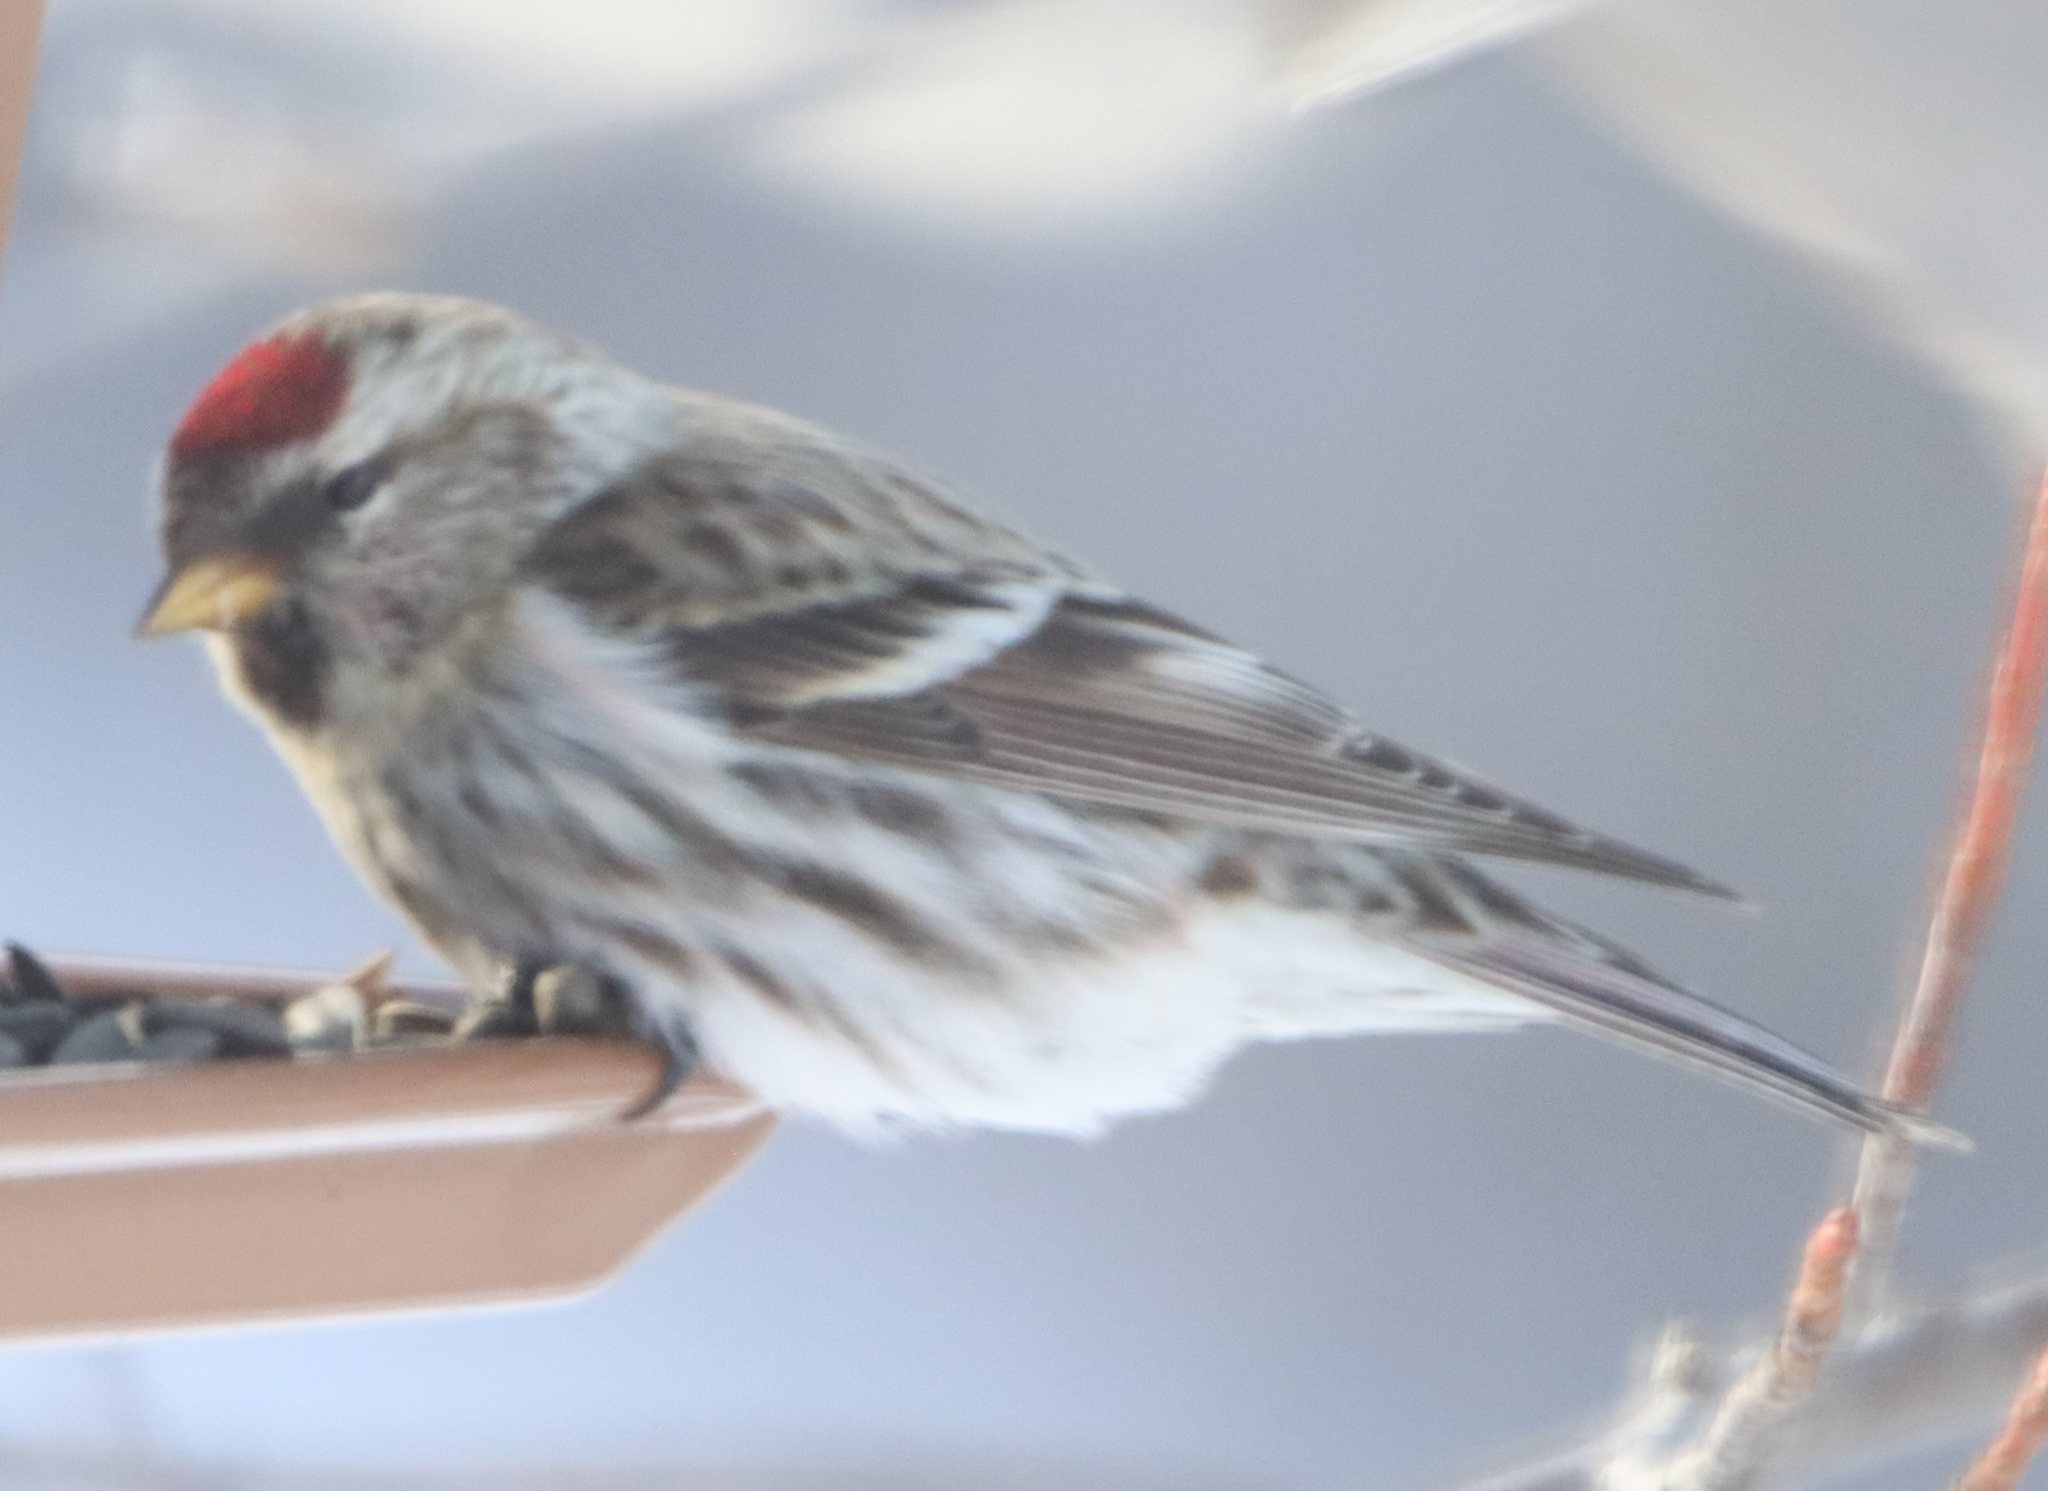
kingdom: Animalia
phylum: Chordata
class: Aves
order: Passeriformes
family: Fringillidae
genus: Acanthis
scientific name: Acanthis flammea
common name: Common redpoll
